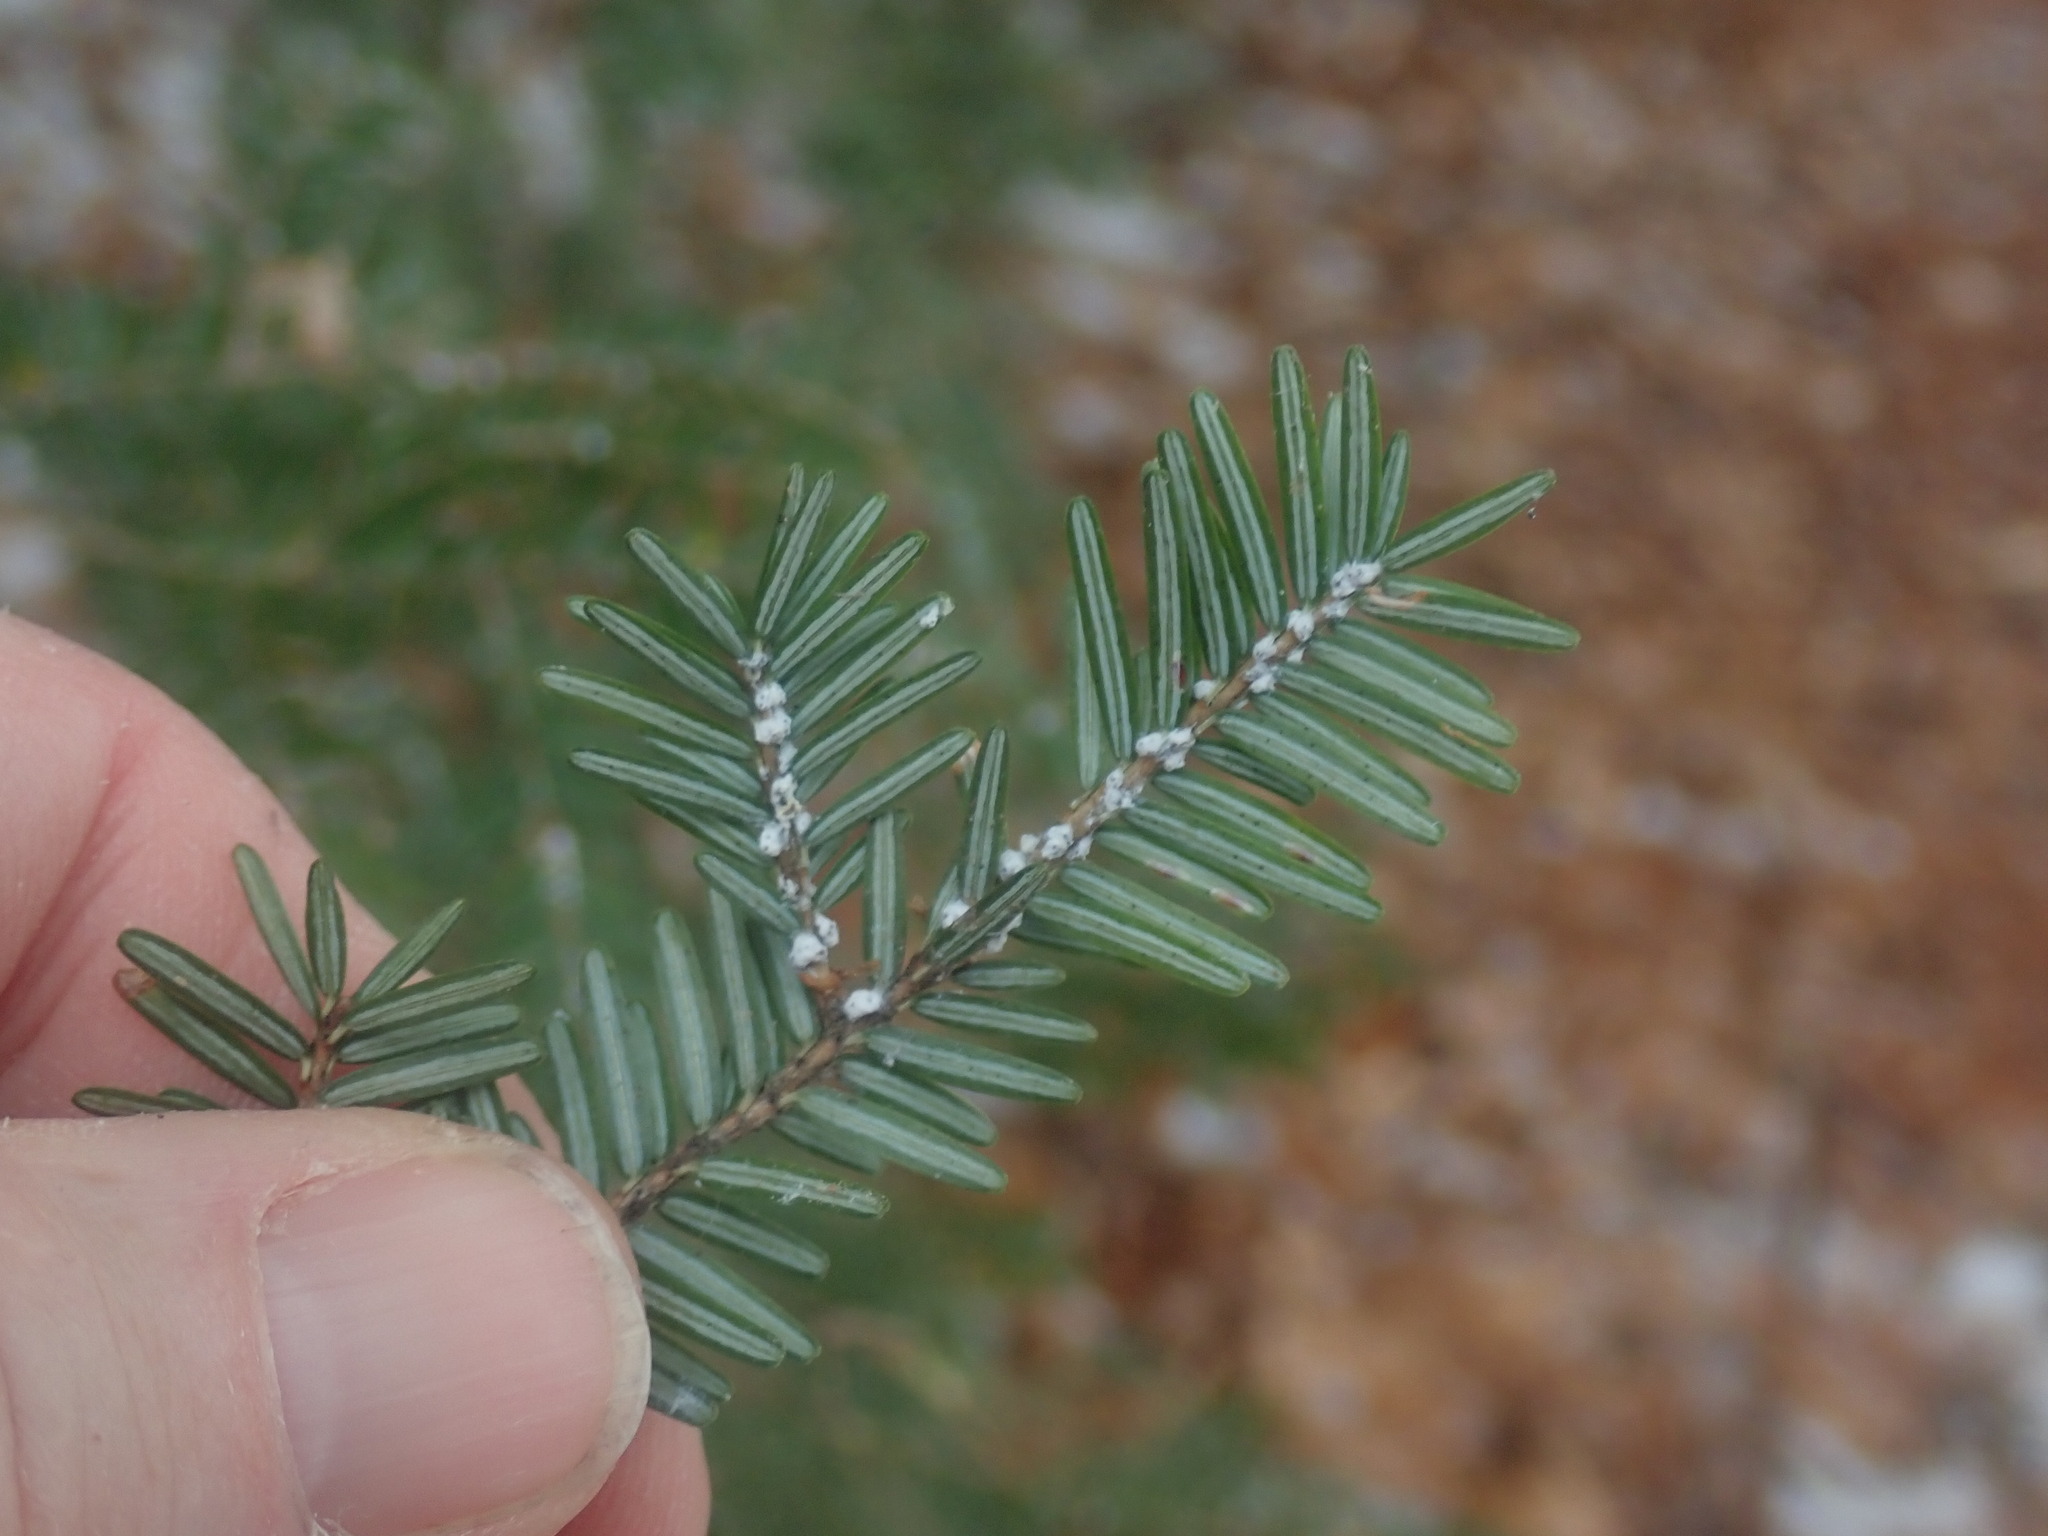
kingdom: Animalia
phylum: Arthropoda
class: Insecta
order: Hemiptera
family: Adelgidae
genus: Adelges
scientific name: Adelges tsugae
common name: Hemlock woolly adelgid
